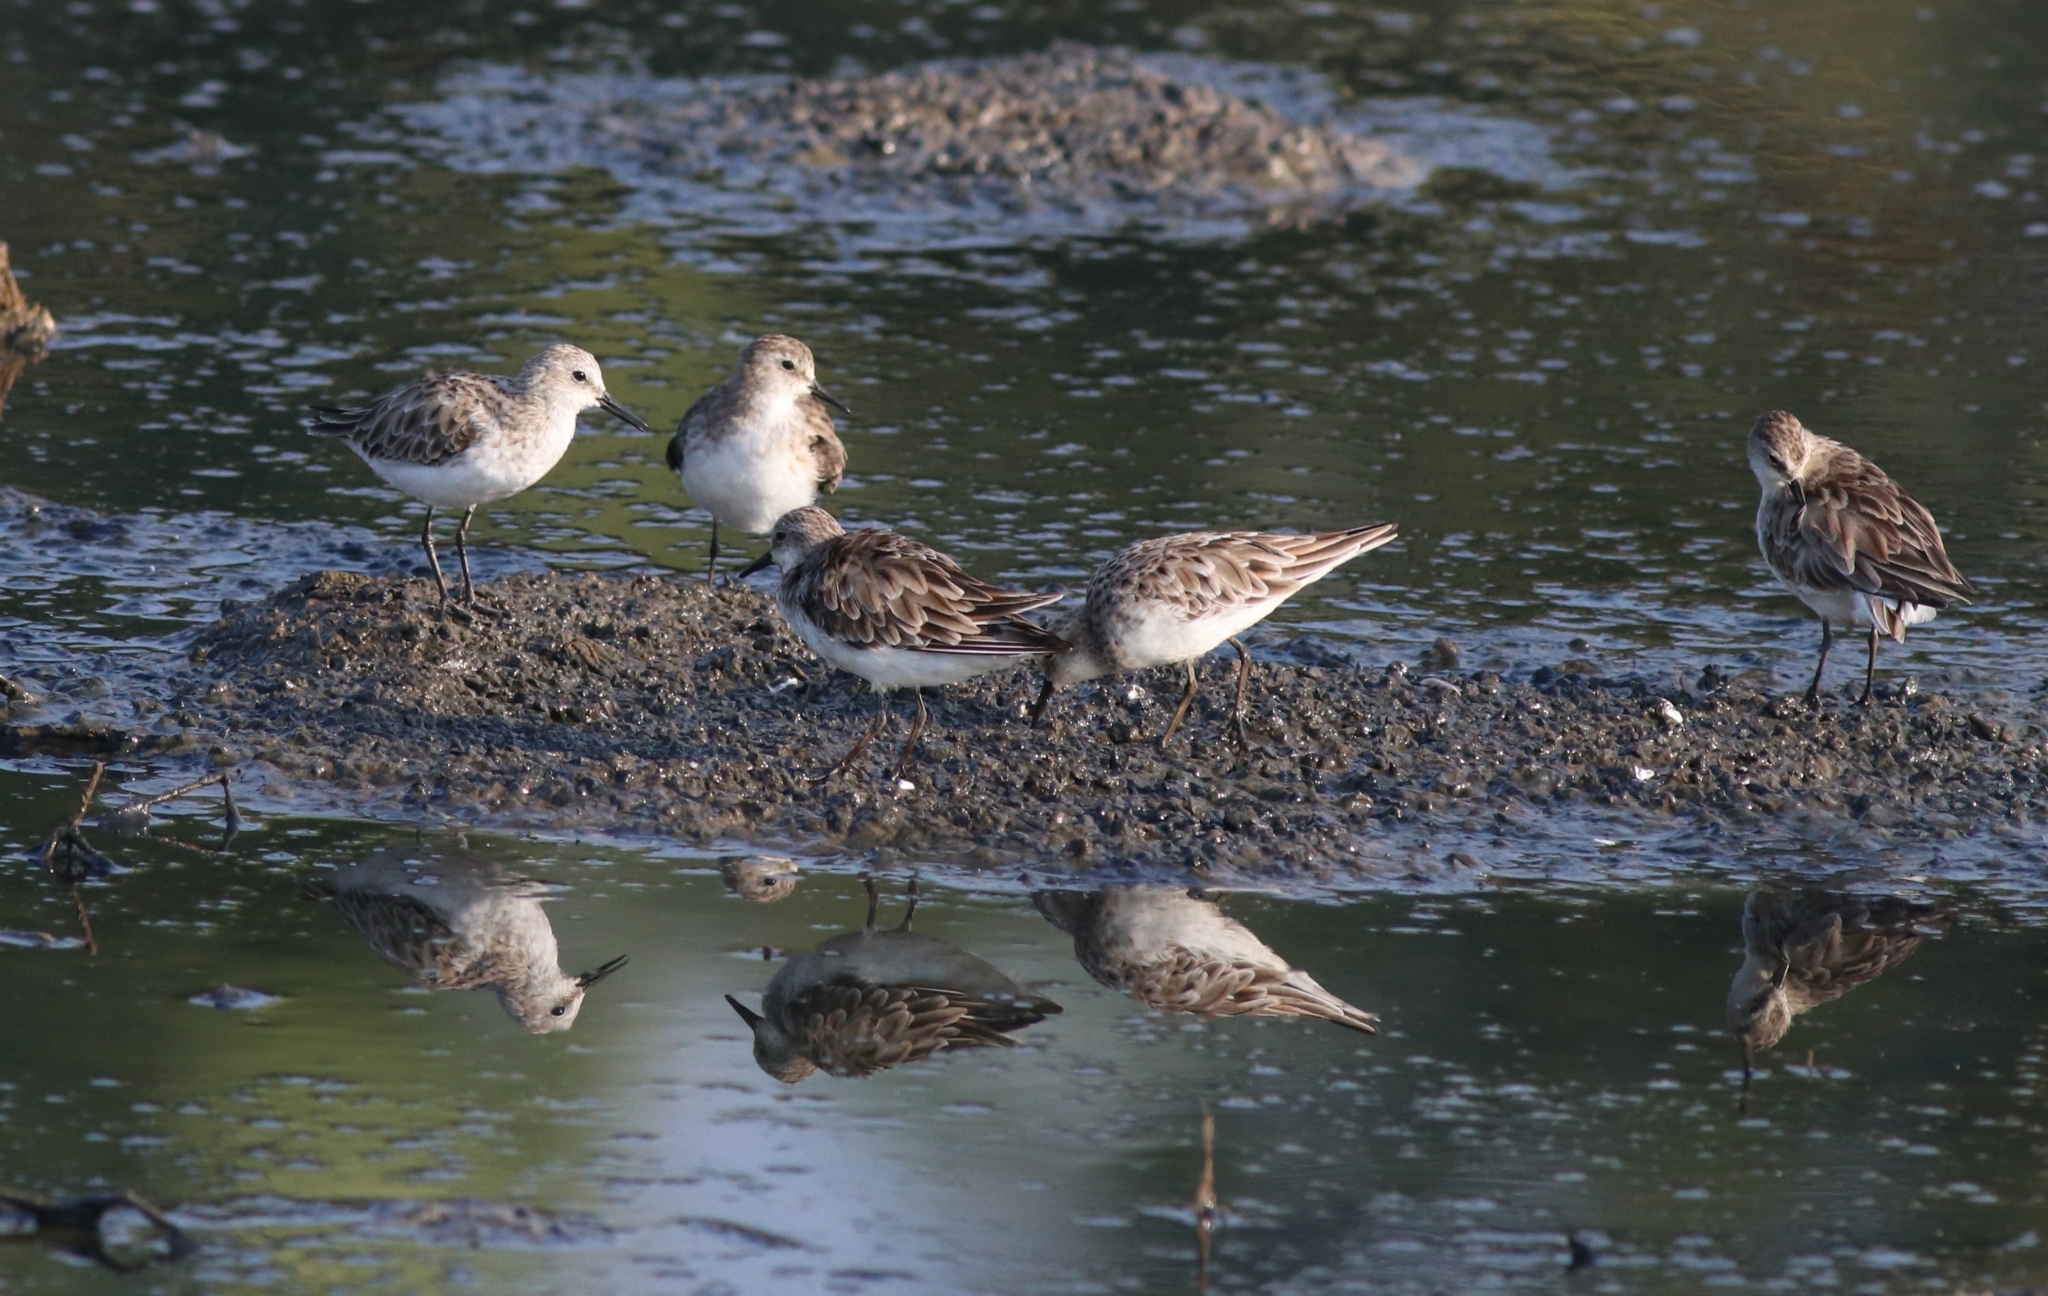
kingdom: Animalia
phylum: Chordata
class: Aves
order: Charadriiformes
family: Scolopacidae
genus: Calidris
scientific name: Calidris minuta
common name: Little stint
